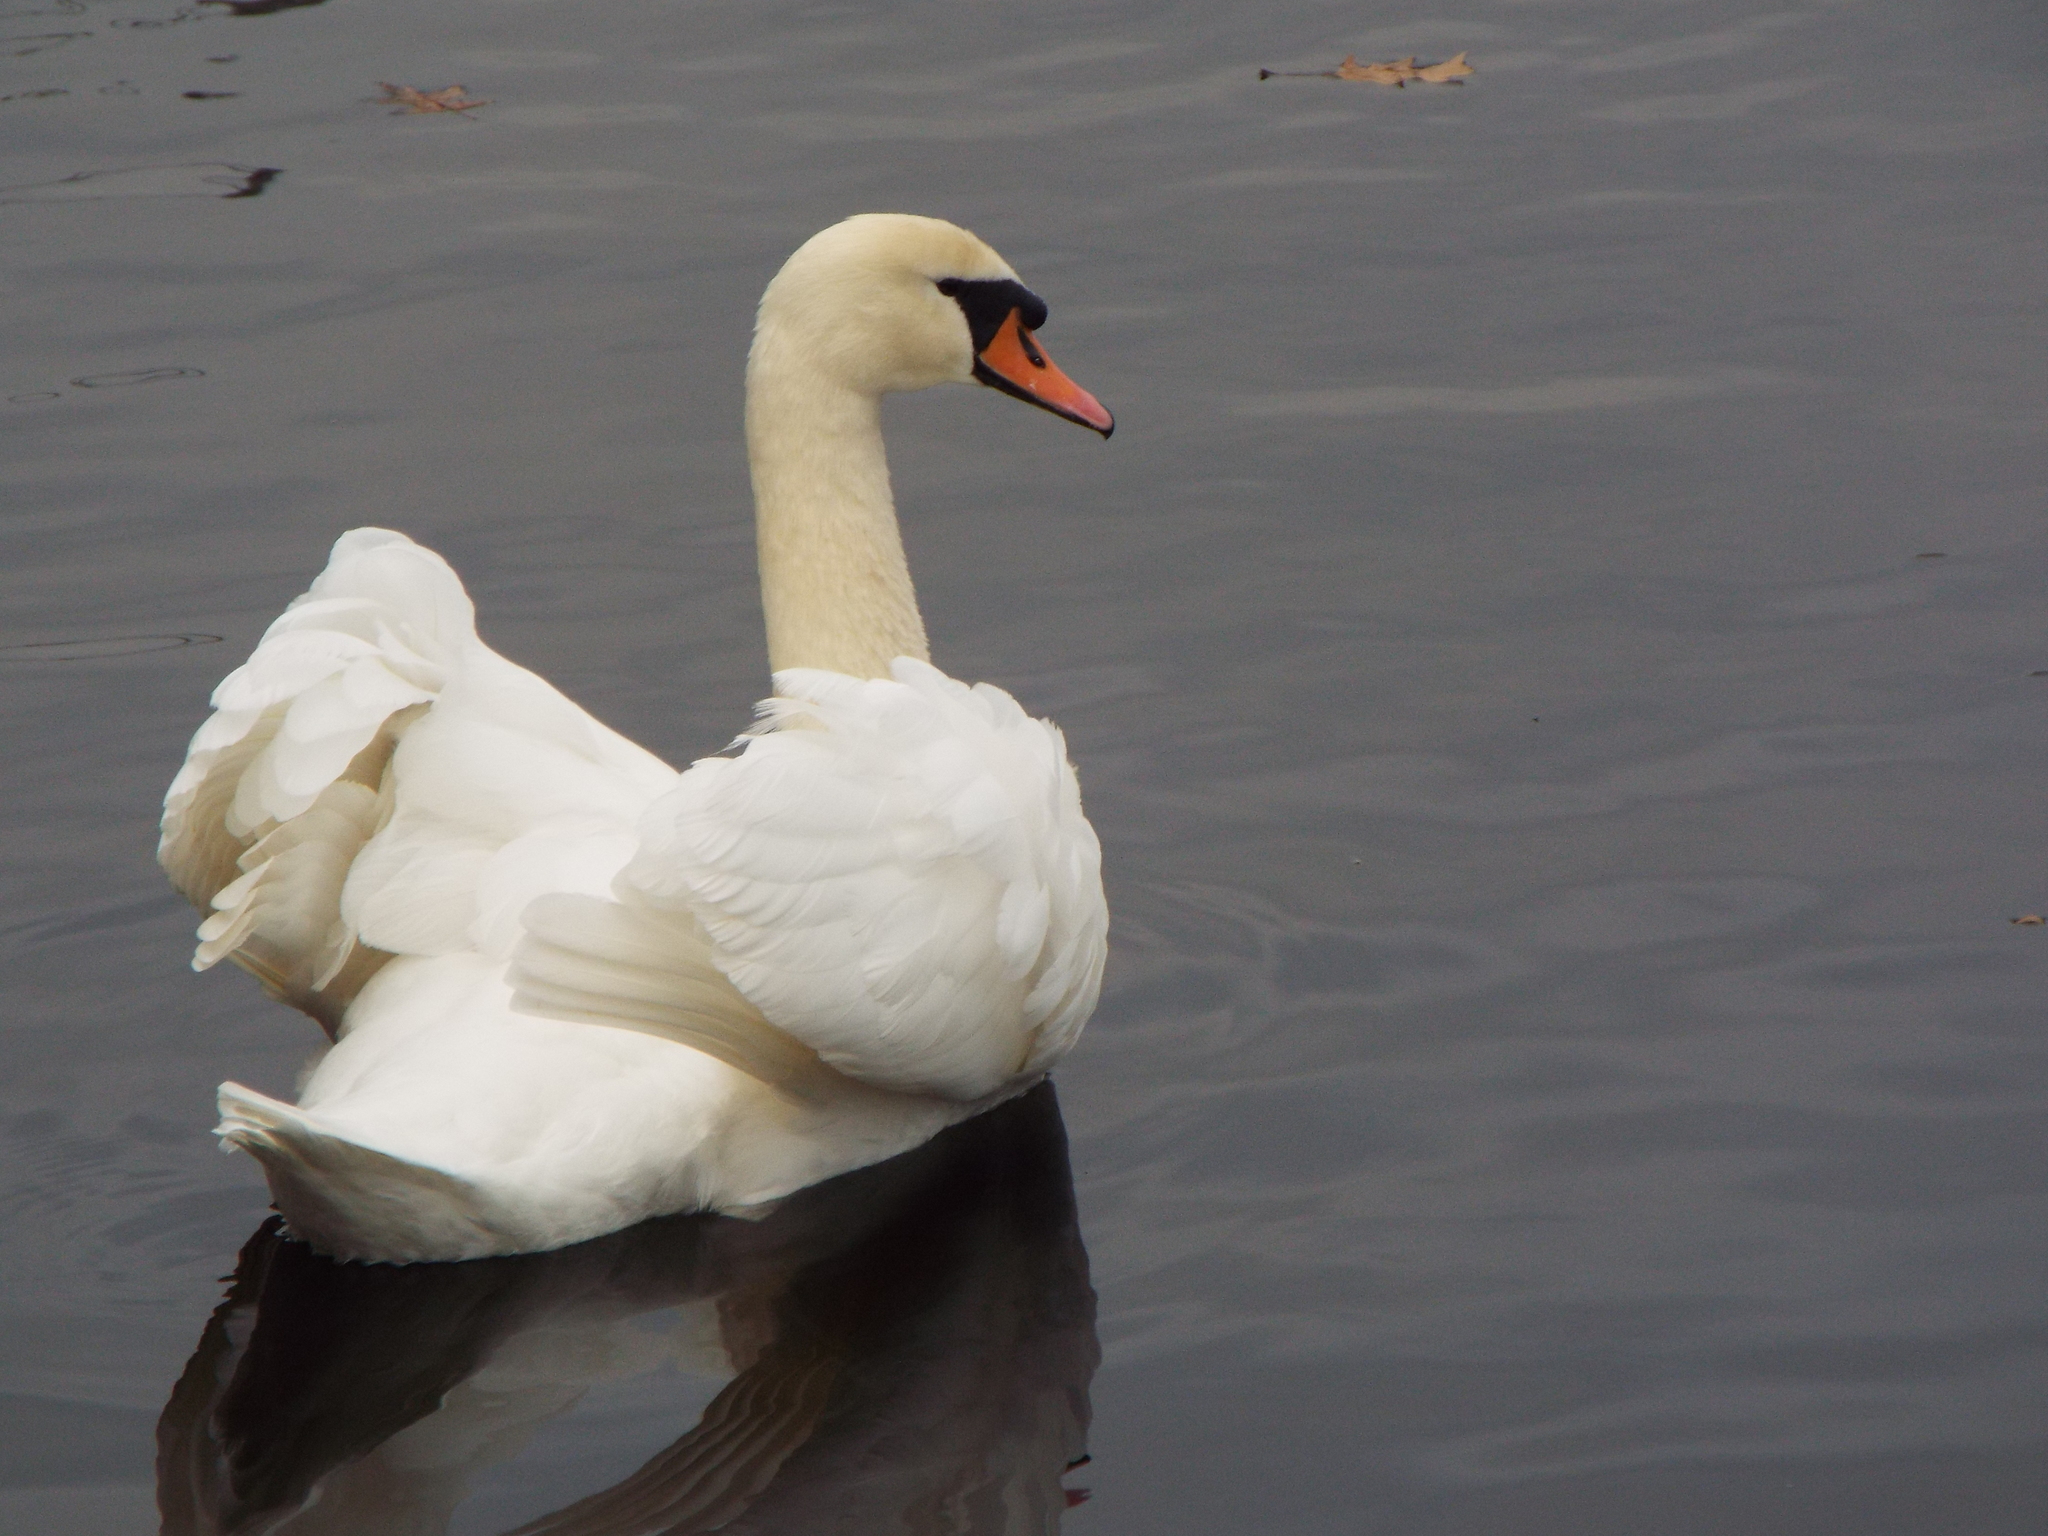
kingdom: Animalia
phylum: Chordata
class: Aves
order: Anseriformes
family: Anatidae
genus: Cygnus
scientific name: Cygnus olor
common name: Mute swan
